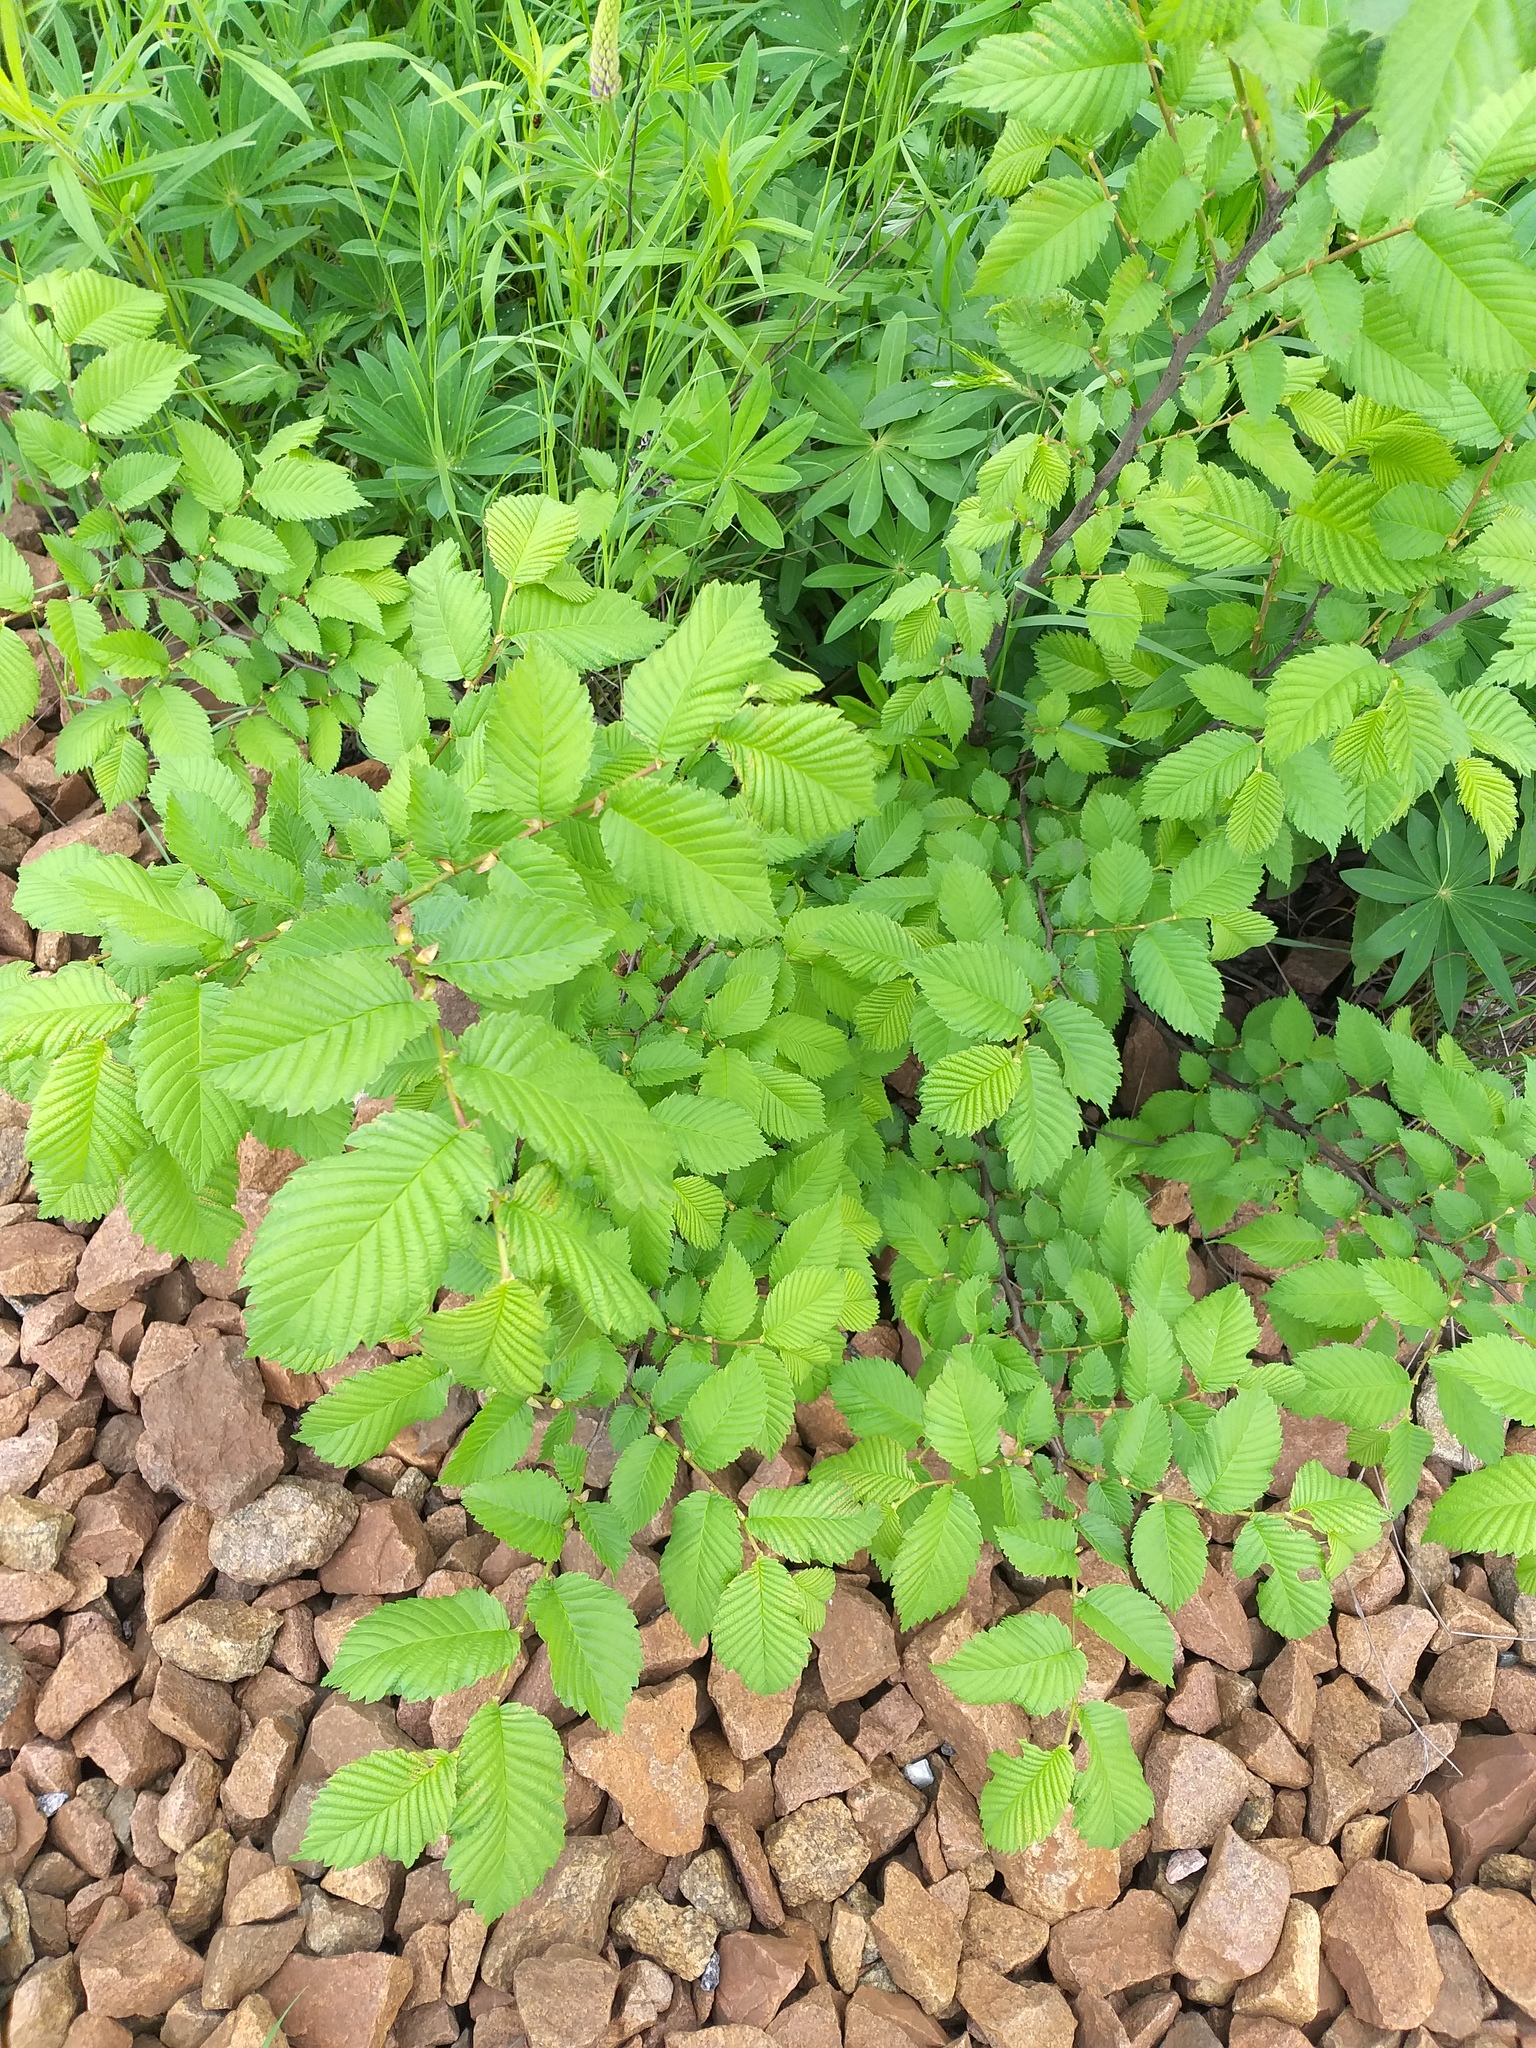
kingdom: Plantae
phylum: Tracheophyta
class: Magnoliopsida
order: Rosales
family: Ulmaceae
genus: Ulmus
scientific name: Ulmus laevis
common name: European white-elm
